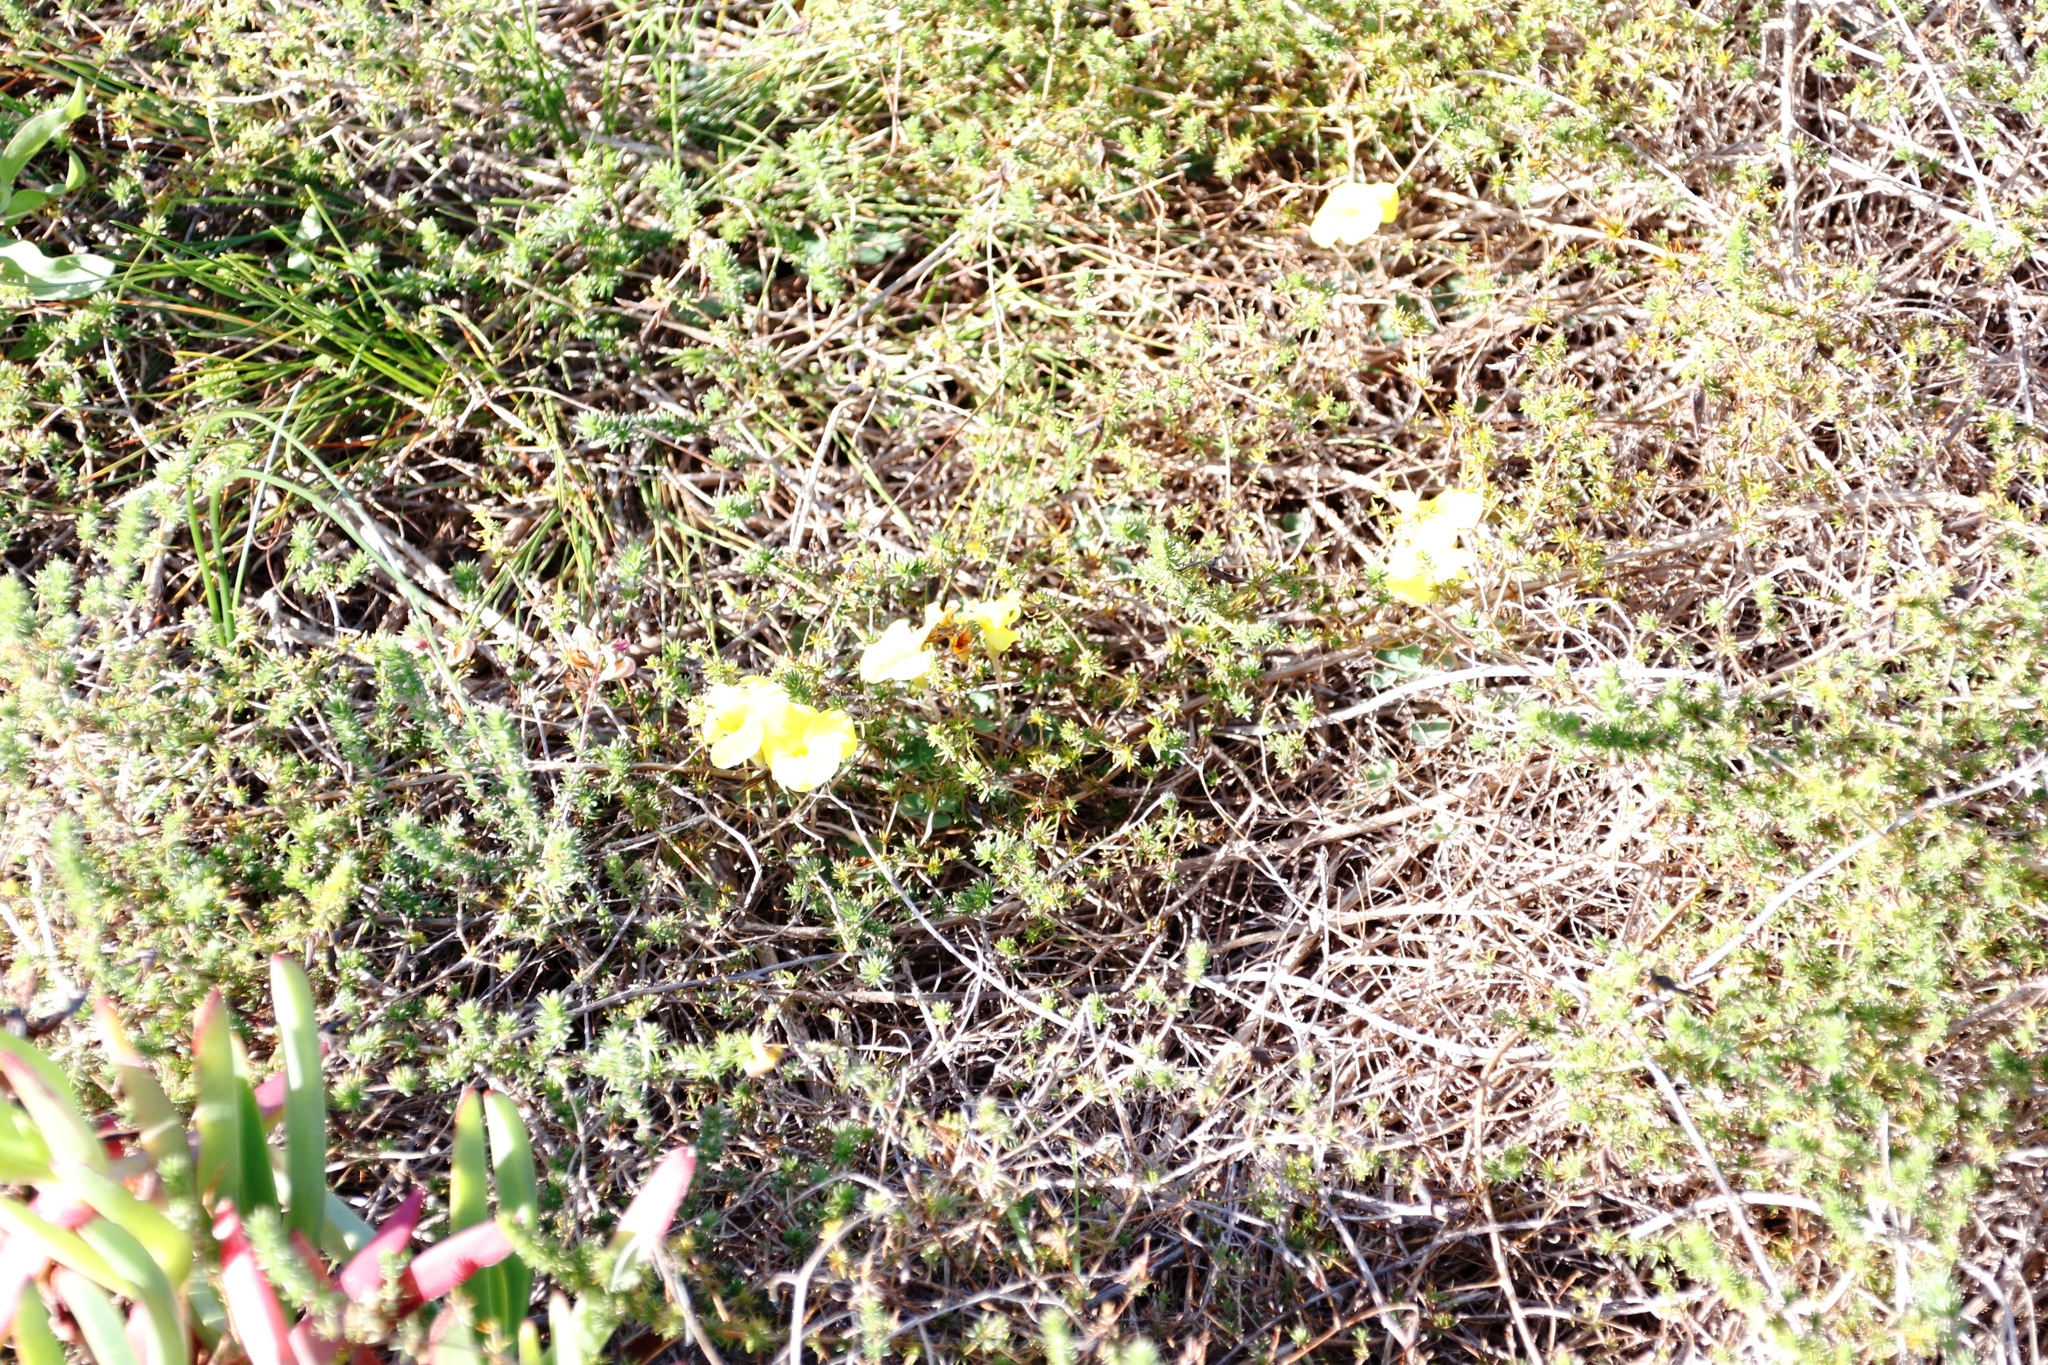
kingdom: Plantae
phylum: Tracheophyta
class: Magnoliopsida
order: Oxalidales
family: Oxalidaceae
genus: Oxalis
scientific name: Oxalis luteola
